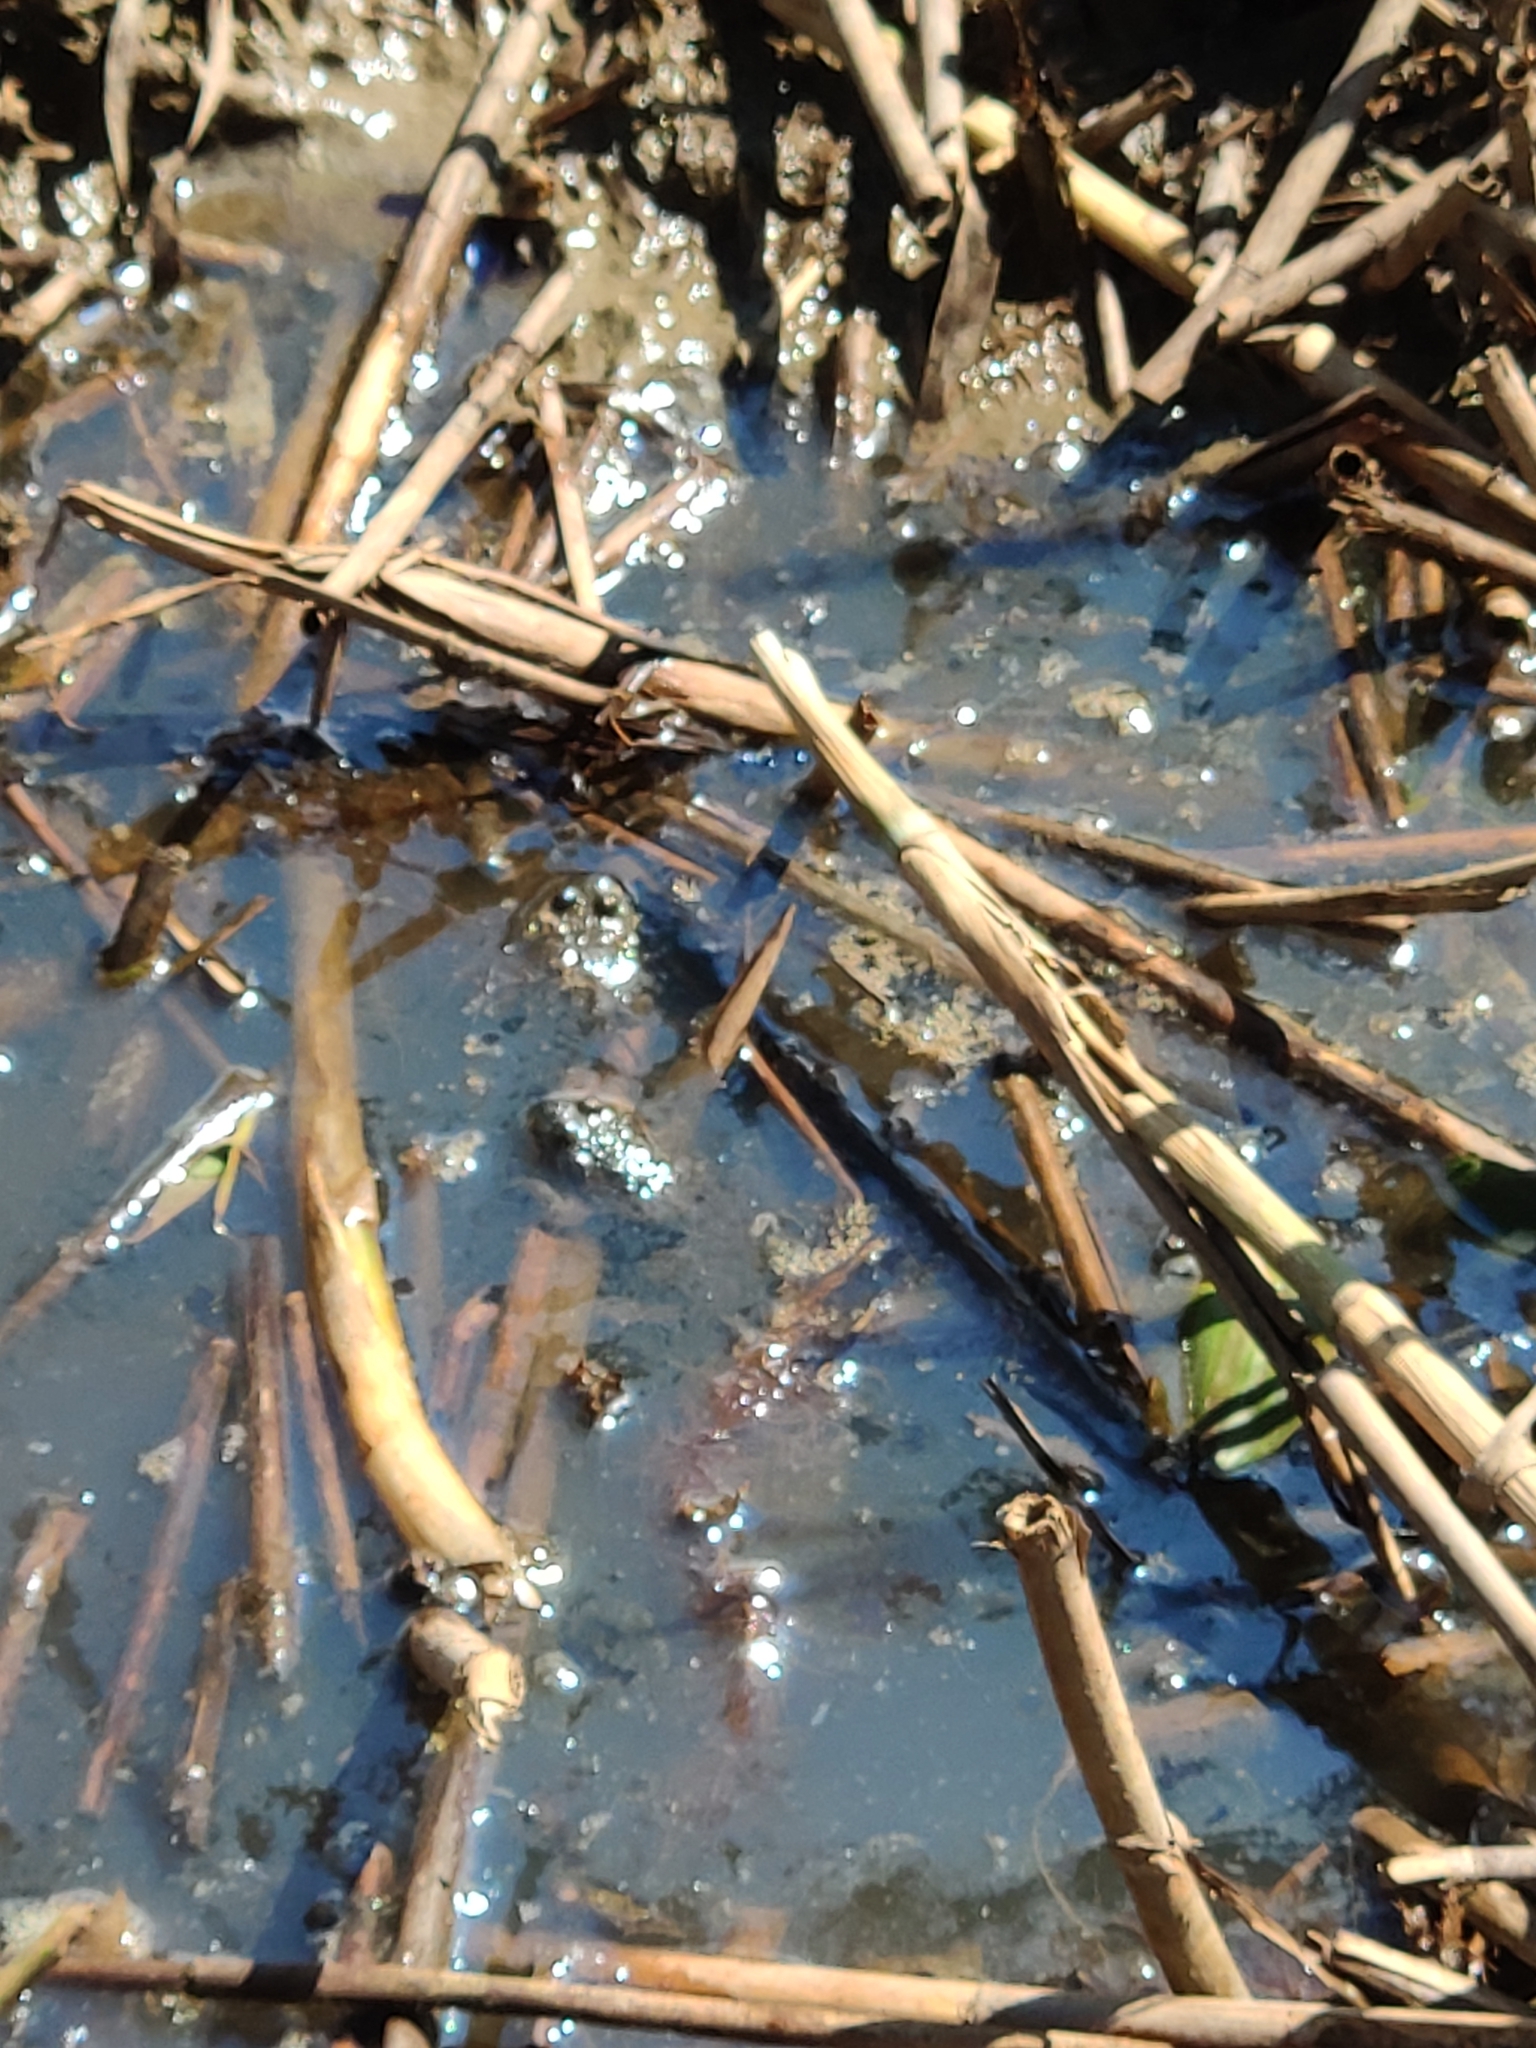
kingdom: Animalia
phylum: Chordata
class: Amphibia
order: Anura
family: Bombinatoridae
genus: Bombina
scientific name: Bombina variegata
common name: Yellow-bellied toad
